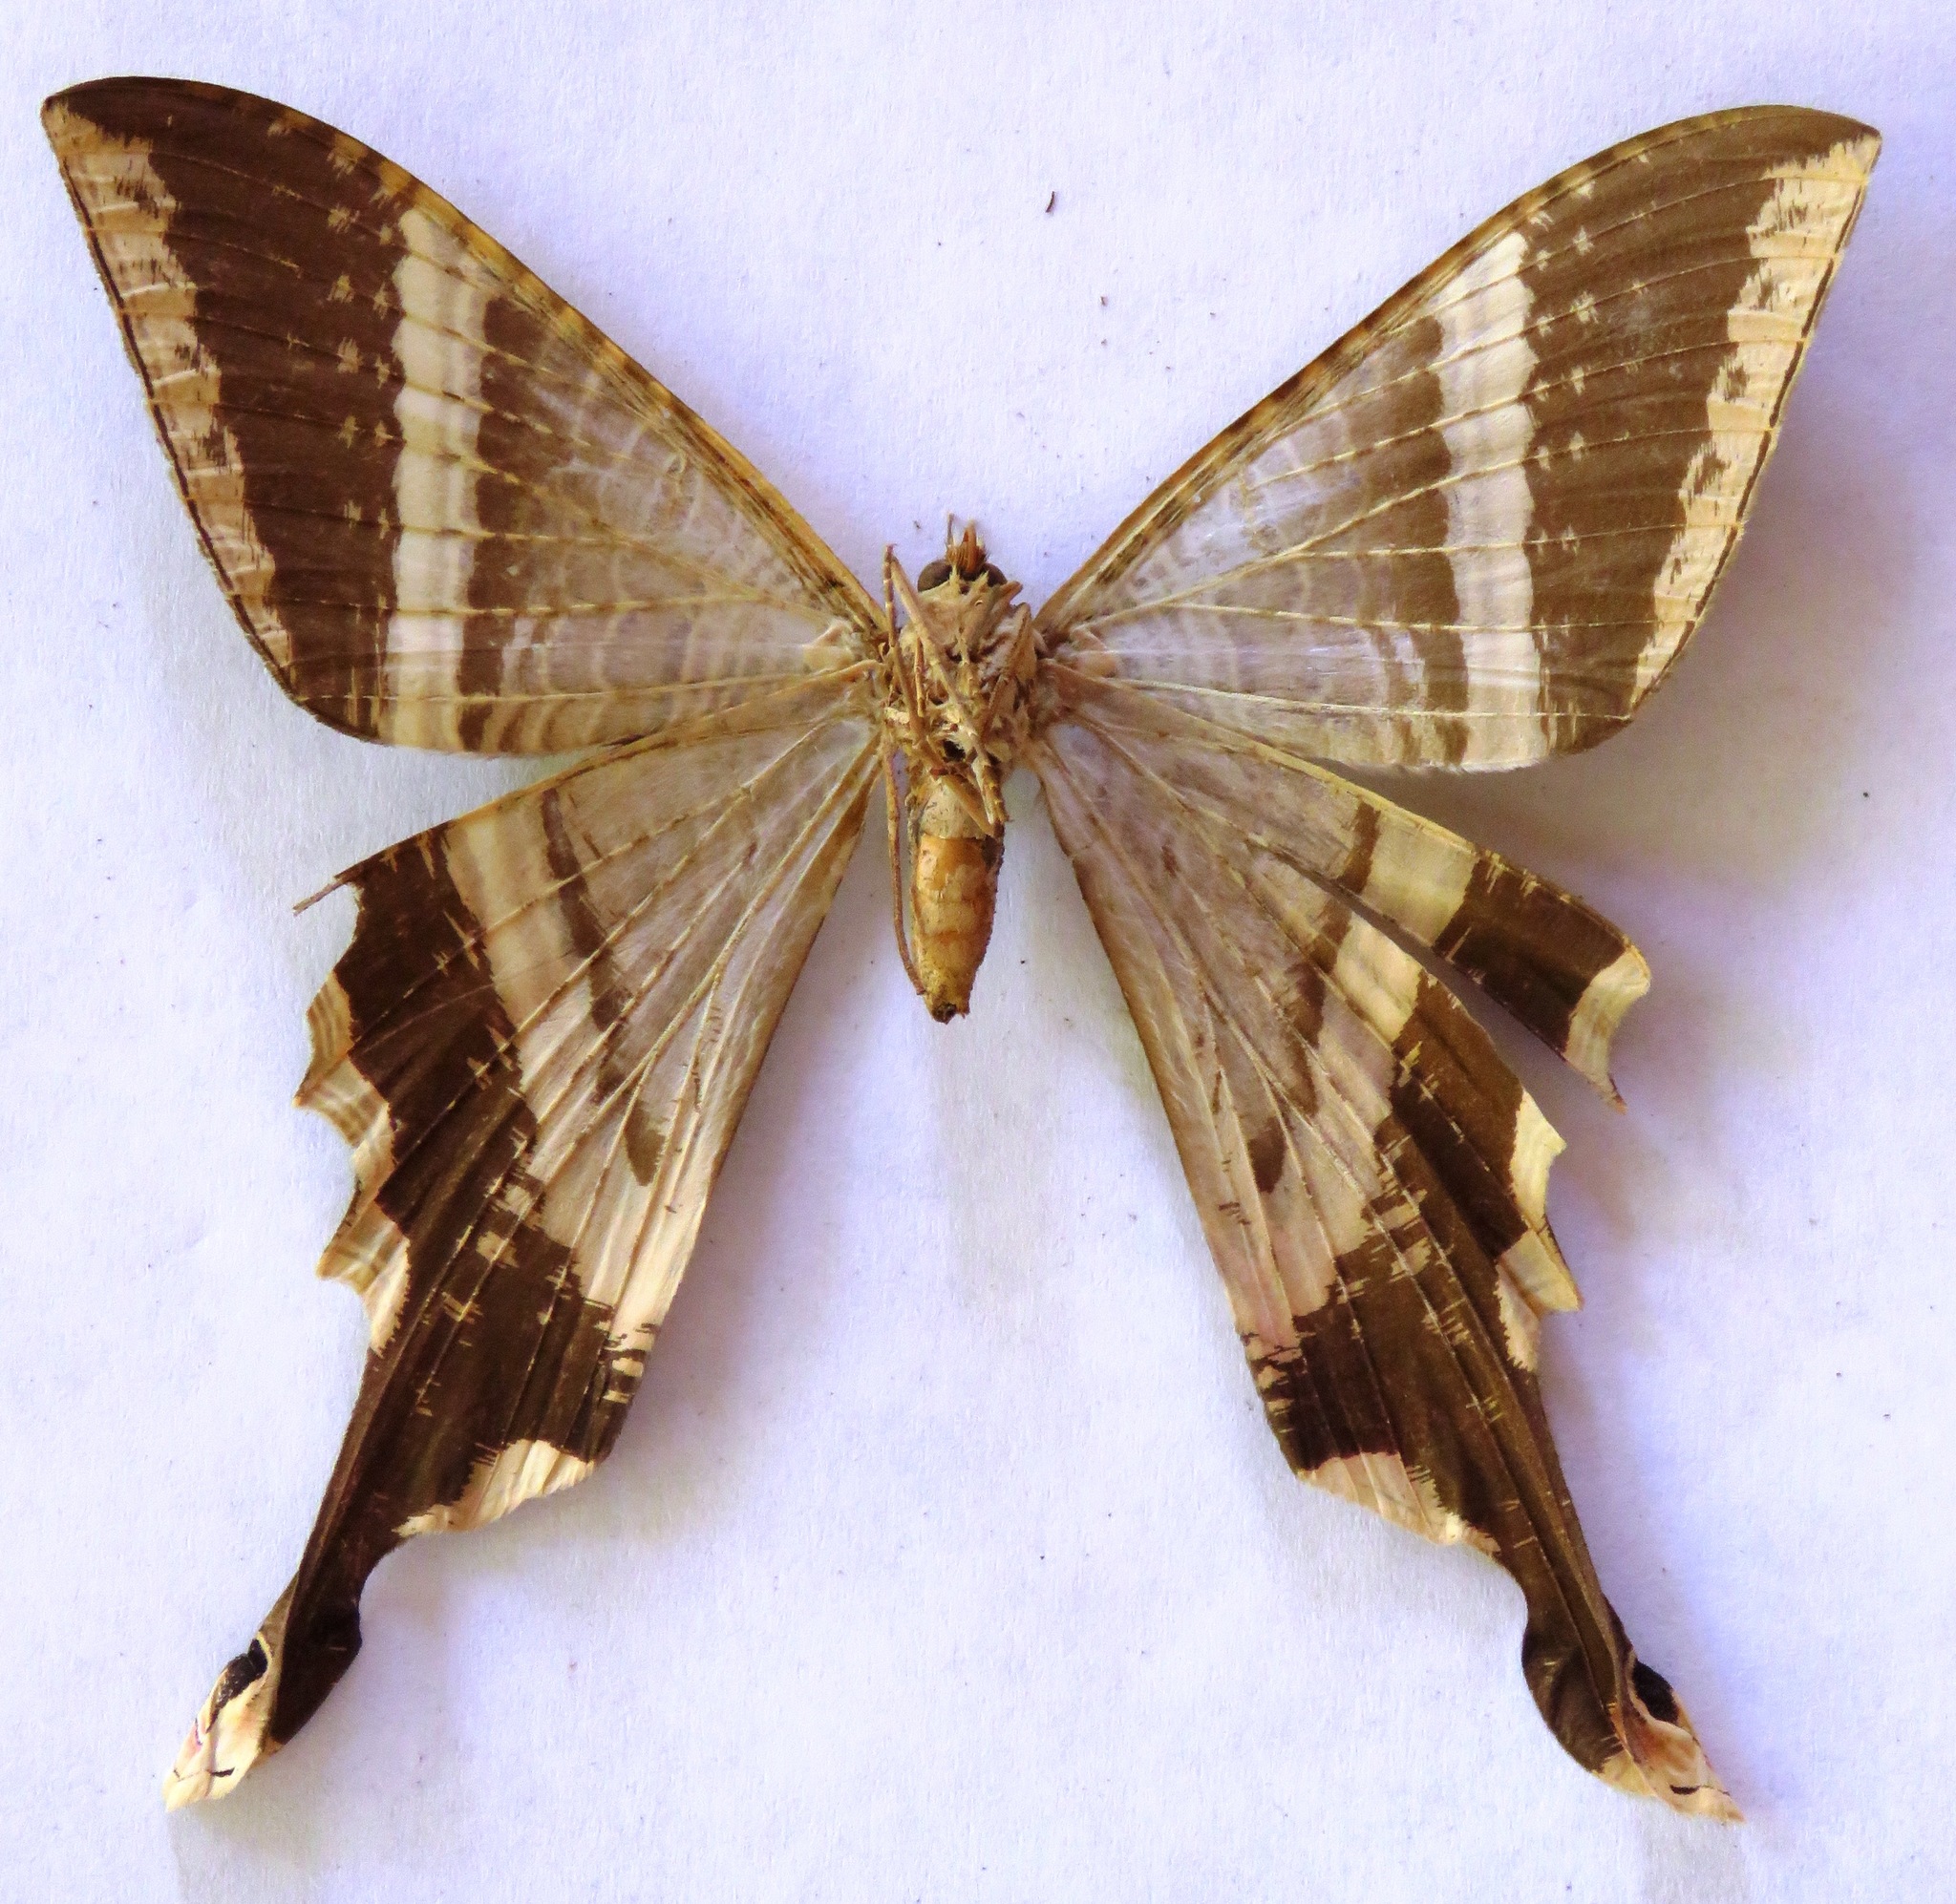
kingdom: Animalia
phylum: Arthropoda
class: Insecta
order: Lepidoptera
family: Sematuridae
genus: Nothus
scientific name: Nothus lunus
